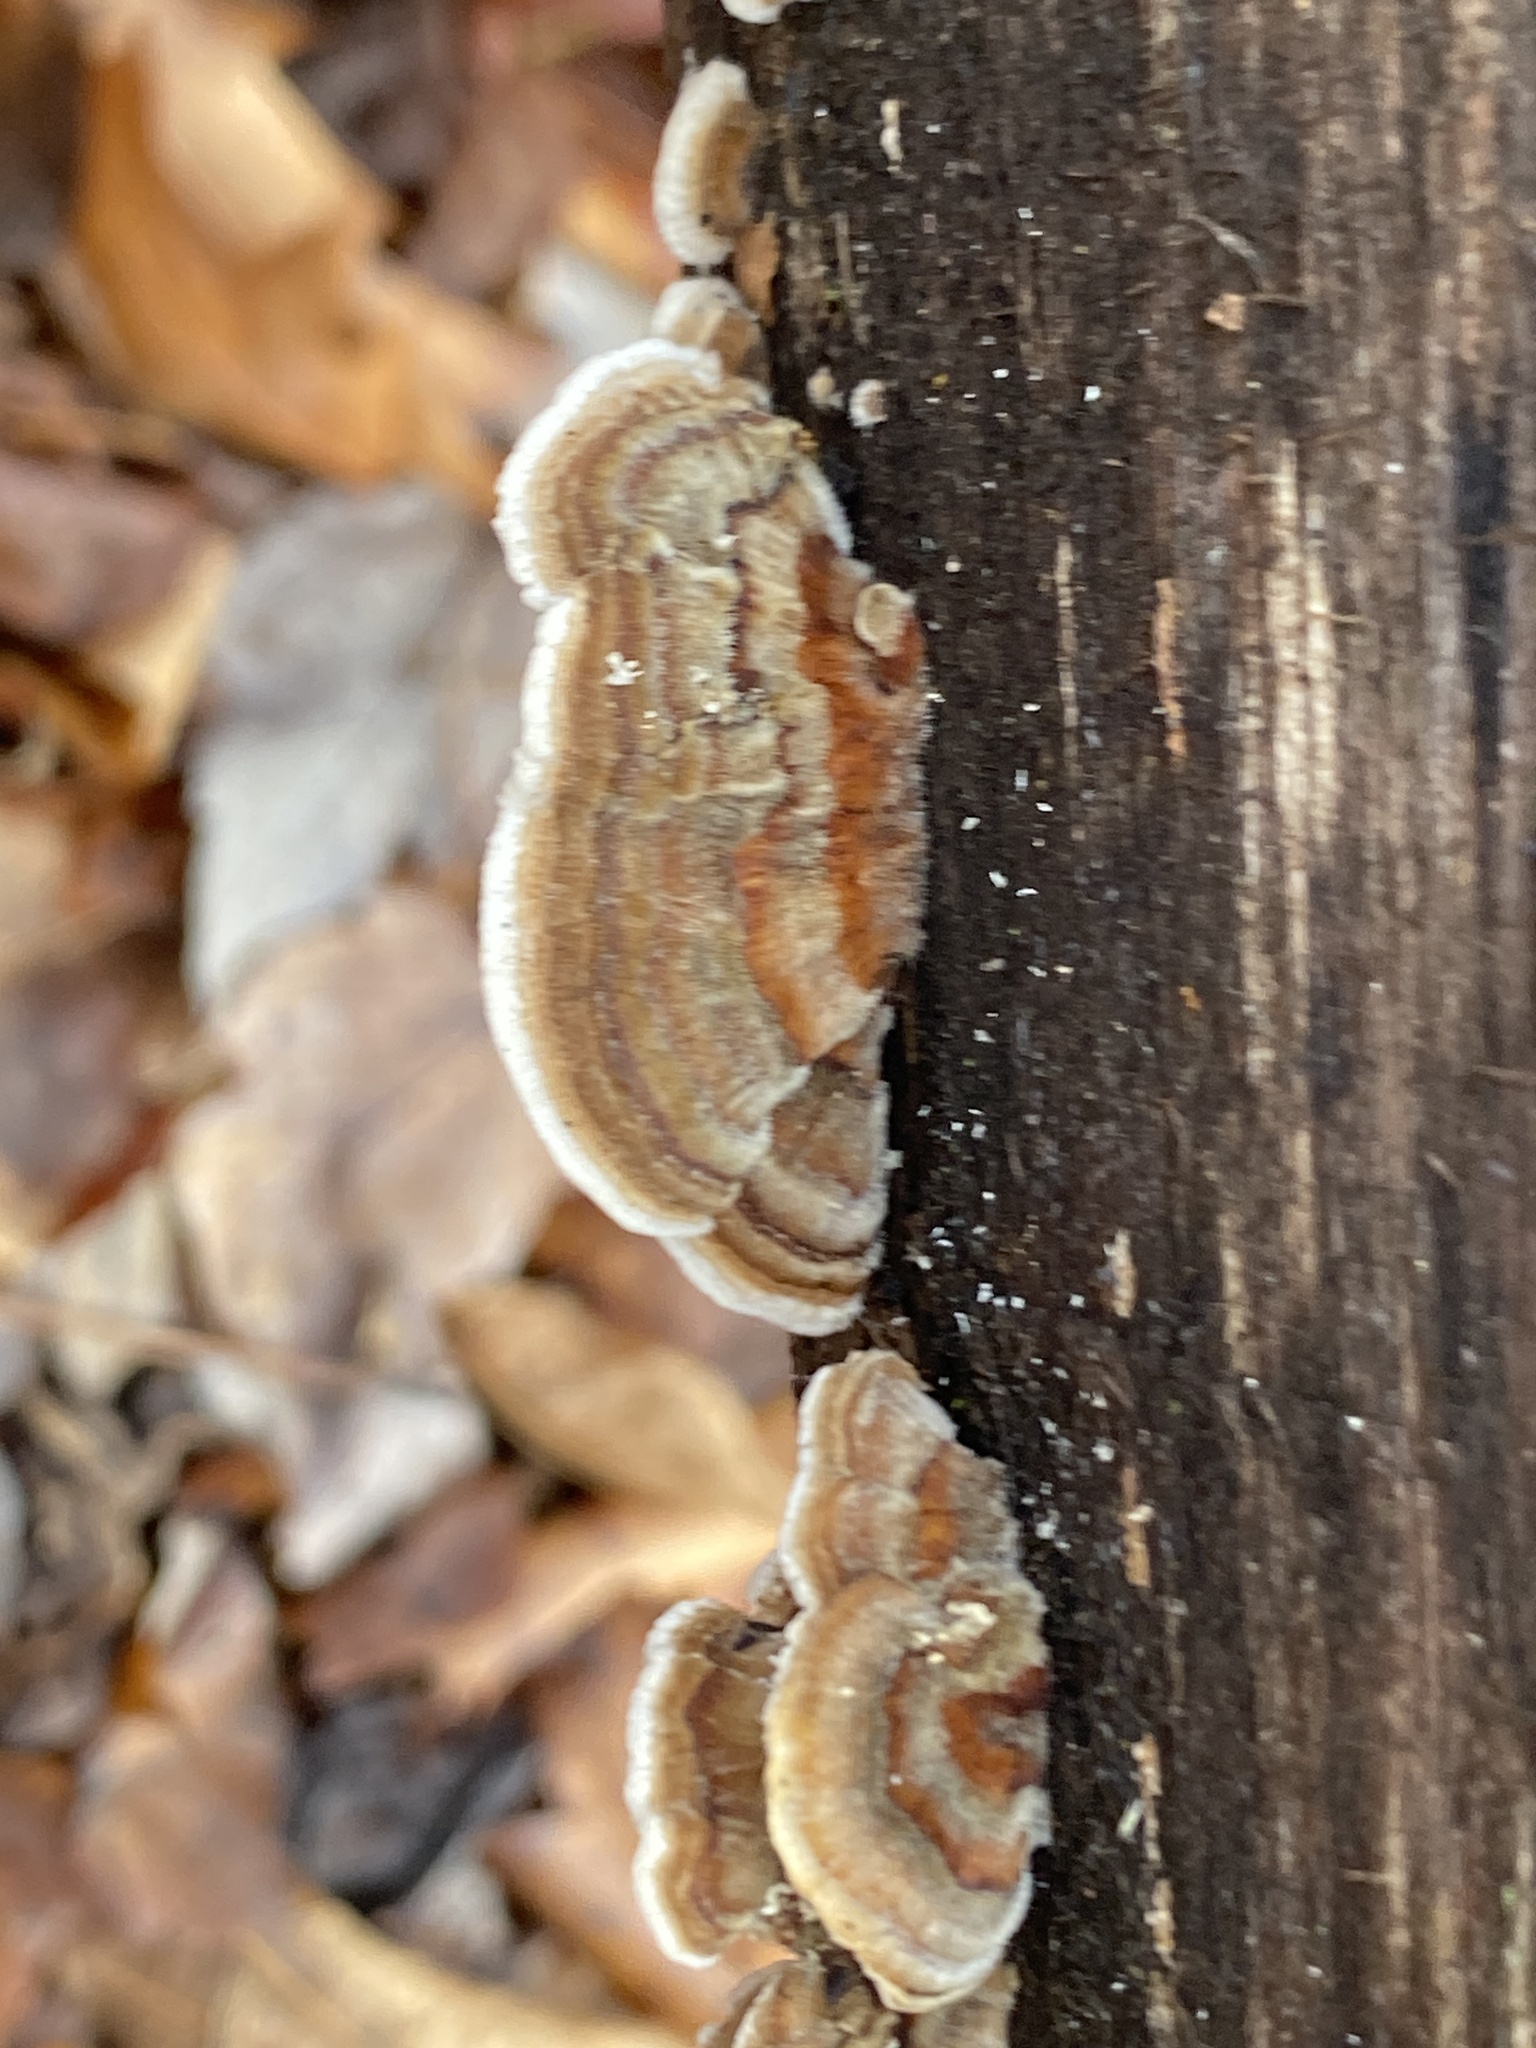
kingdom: Fungi
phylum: Basidiomycota
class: Agaricomycetes
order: Polyporales
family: Irpicaceae
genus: Trametopsis
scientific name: Trametopsis cervina
